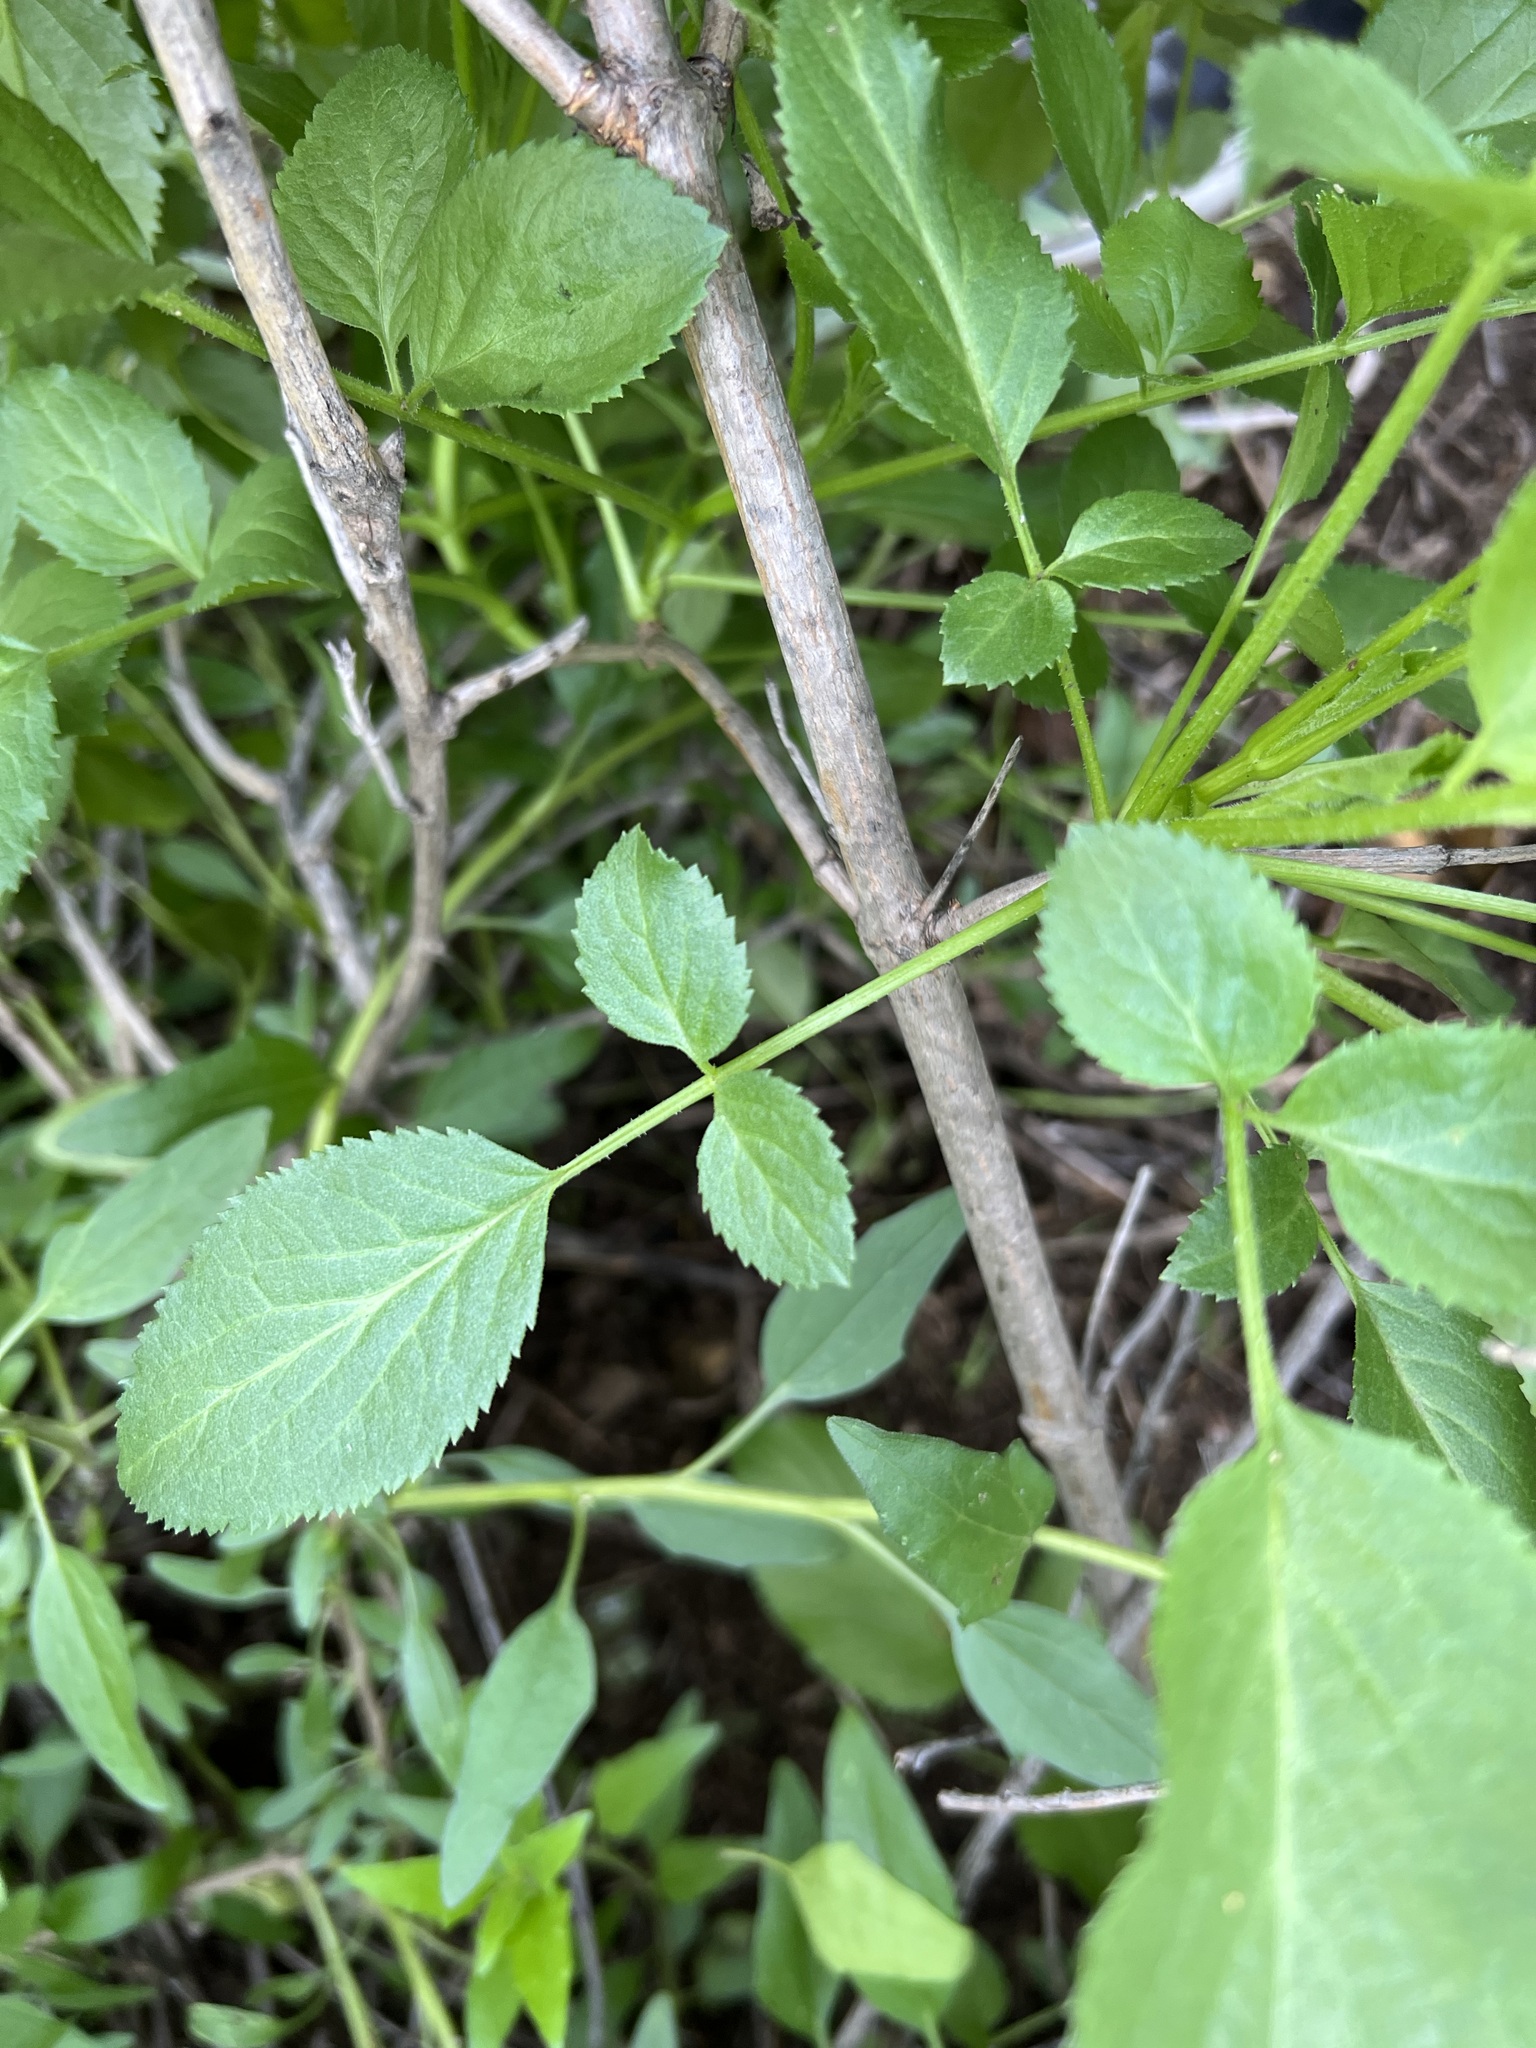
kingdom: Plantae
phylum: Tracheophyta
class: Magnoliopsida
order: Dipsacales
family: Viburnaceae
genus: Sambucus
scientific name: Sambucus cerulea
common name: Blue elder
